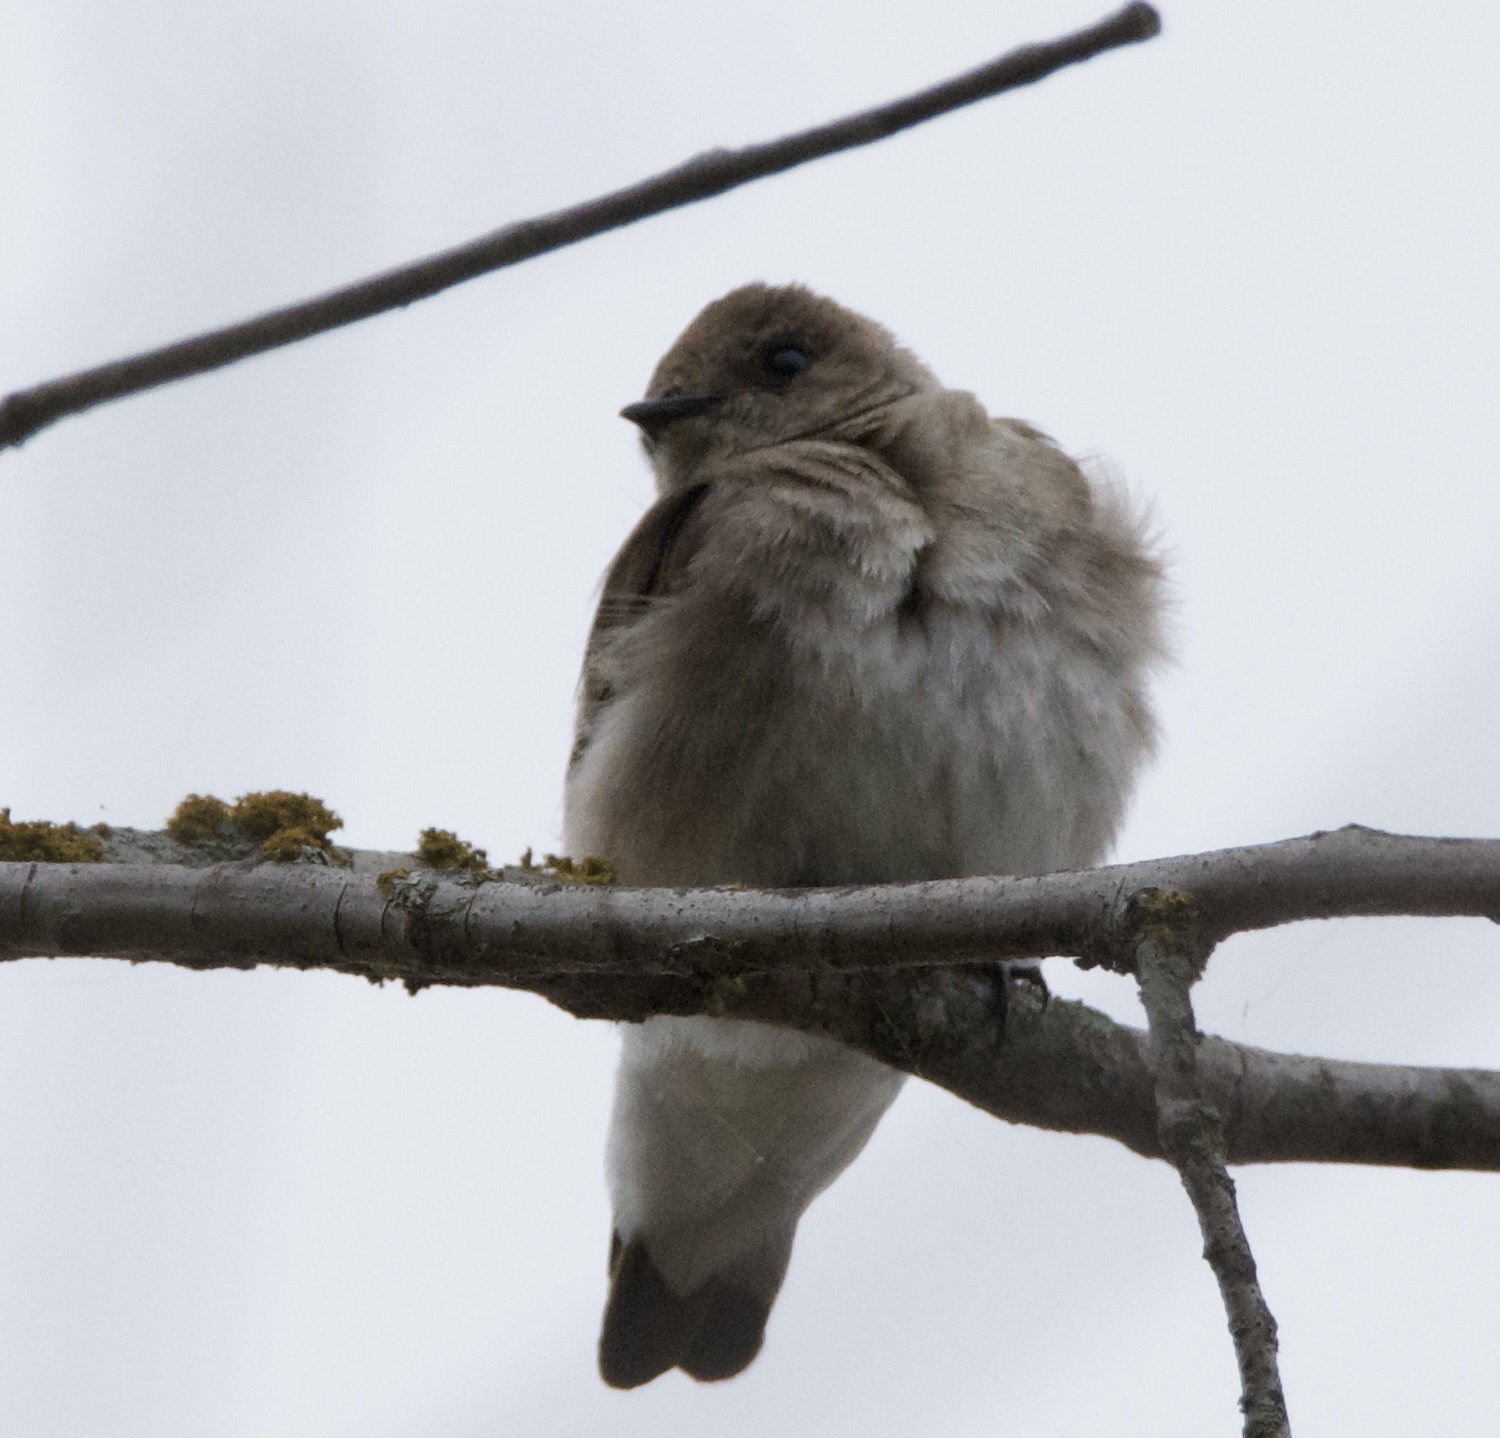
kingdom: Animalia
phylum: Chordata
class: Aves
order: Passeriformes
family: Hirundinidae
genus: Stelgidopteryx
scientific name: Stelgidopteryx serripennis
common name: Northern rough-winged swallow
